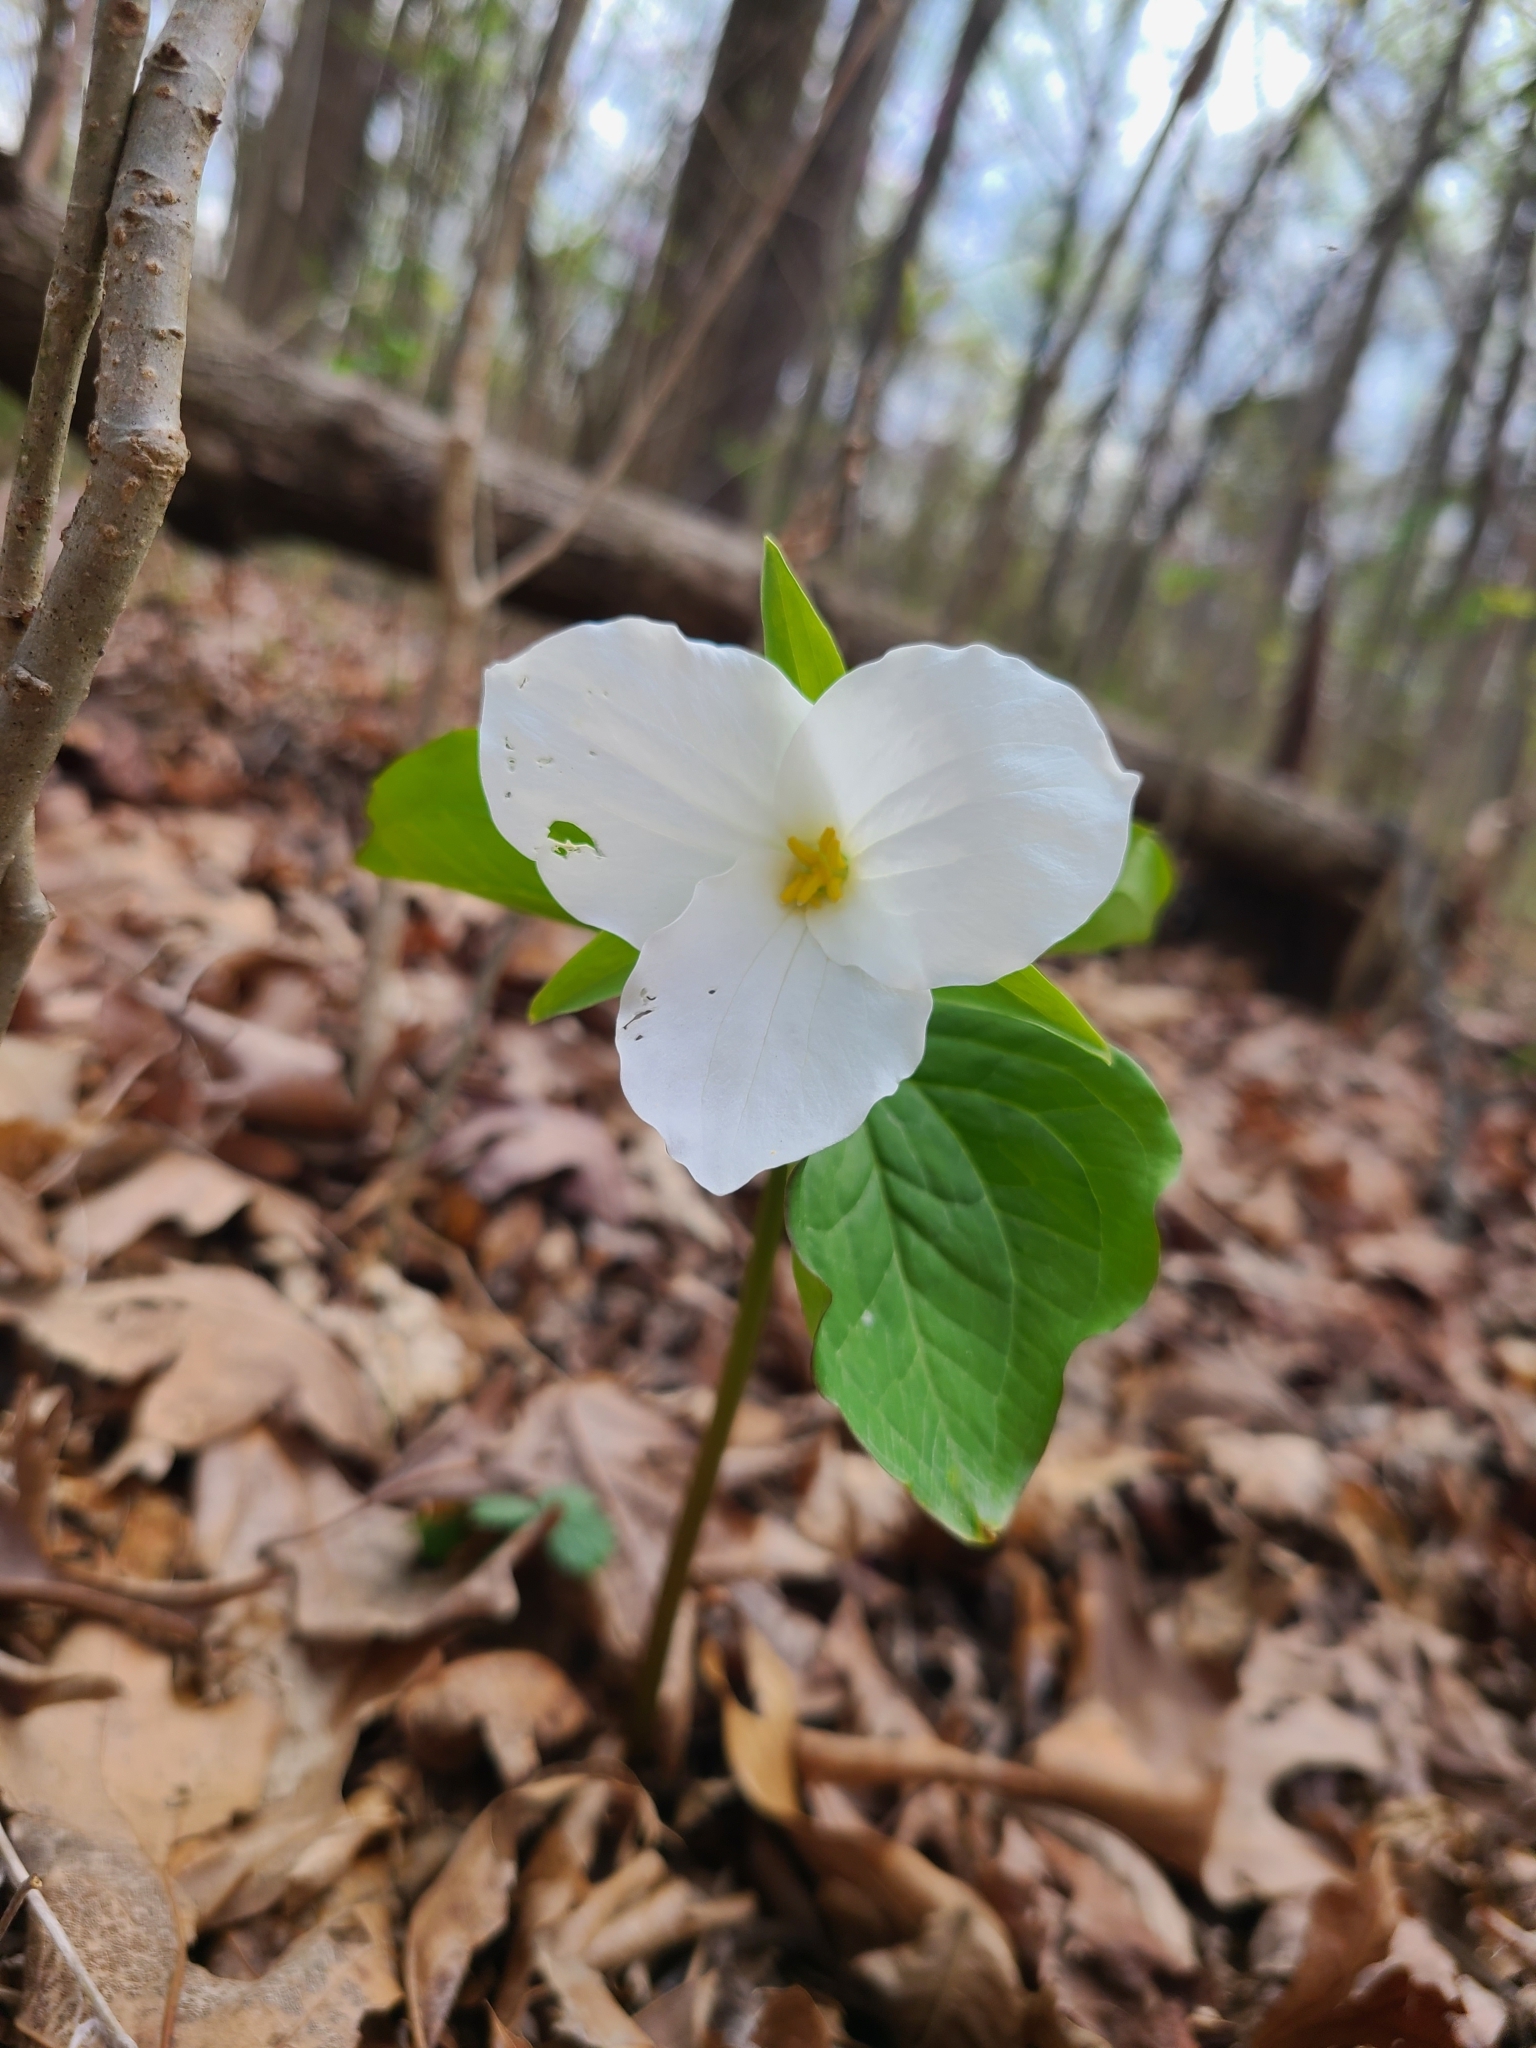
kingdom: Plantae
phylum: Tracheophyta
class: Liliopsida
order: Liliales
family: Melanthiaceae
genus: Trillium
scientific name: Trillium grandiflorum
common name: Great white trillium
